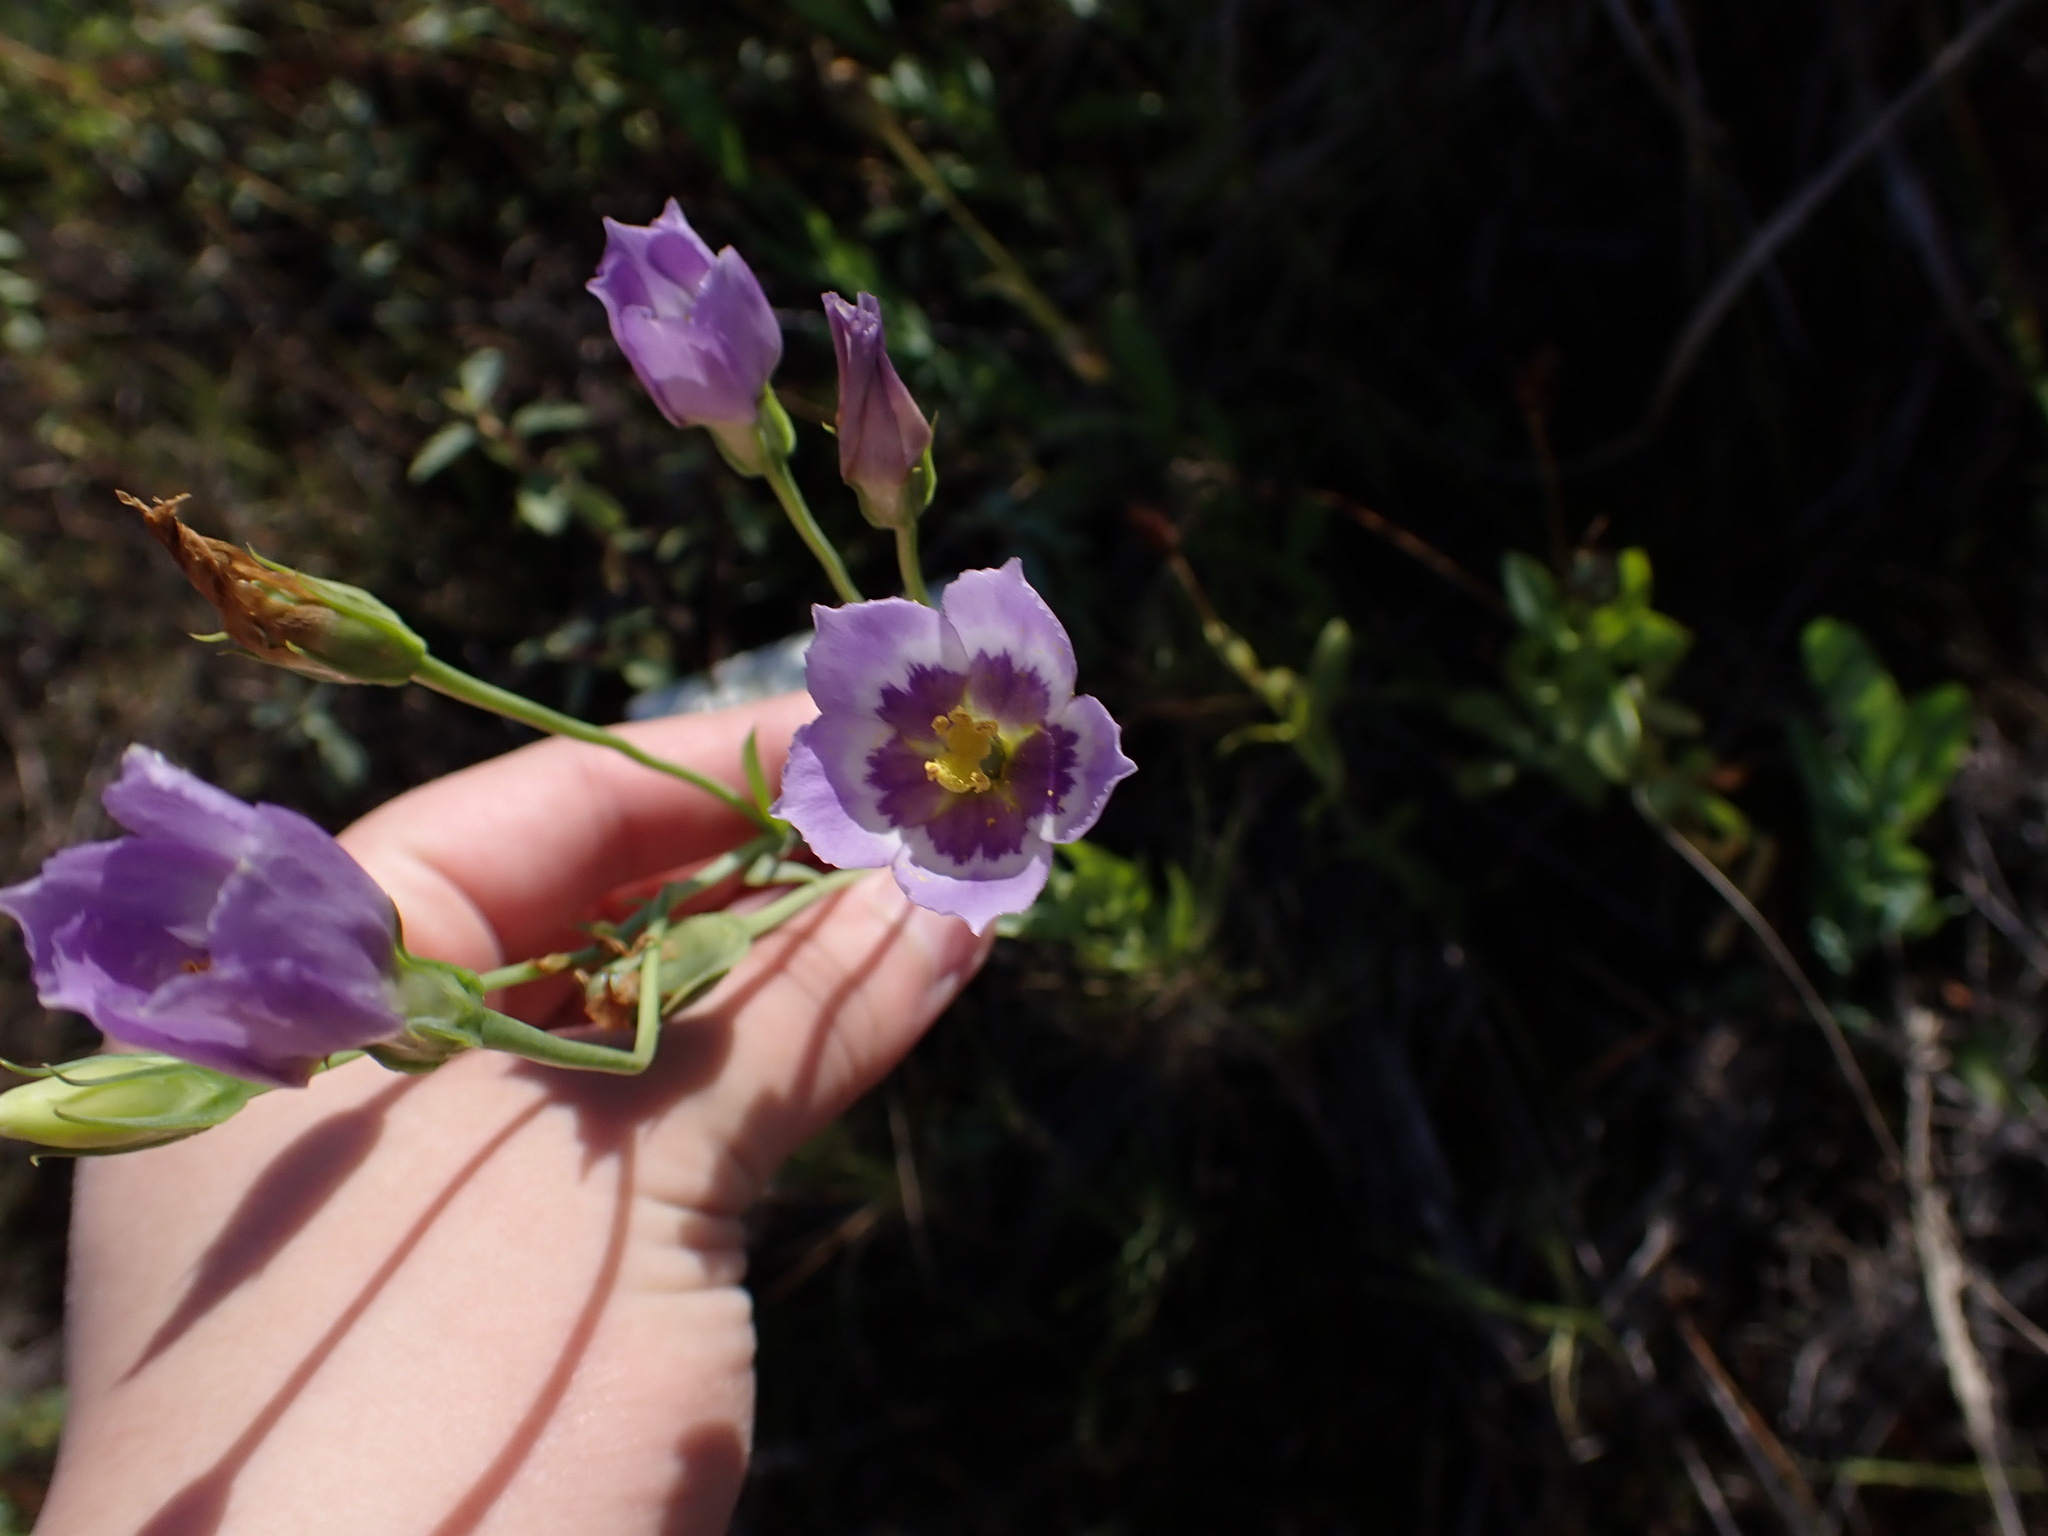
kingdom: Plantae
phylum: Tracheophyta
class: Magnoliopsida
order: Gentianales
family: Gentianaceae
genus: Eustoma
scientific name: Eustoma exaltatum
